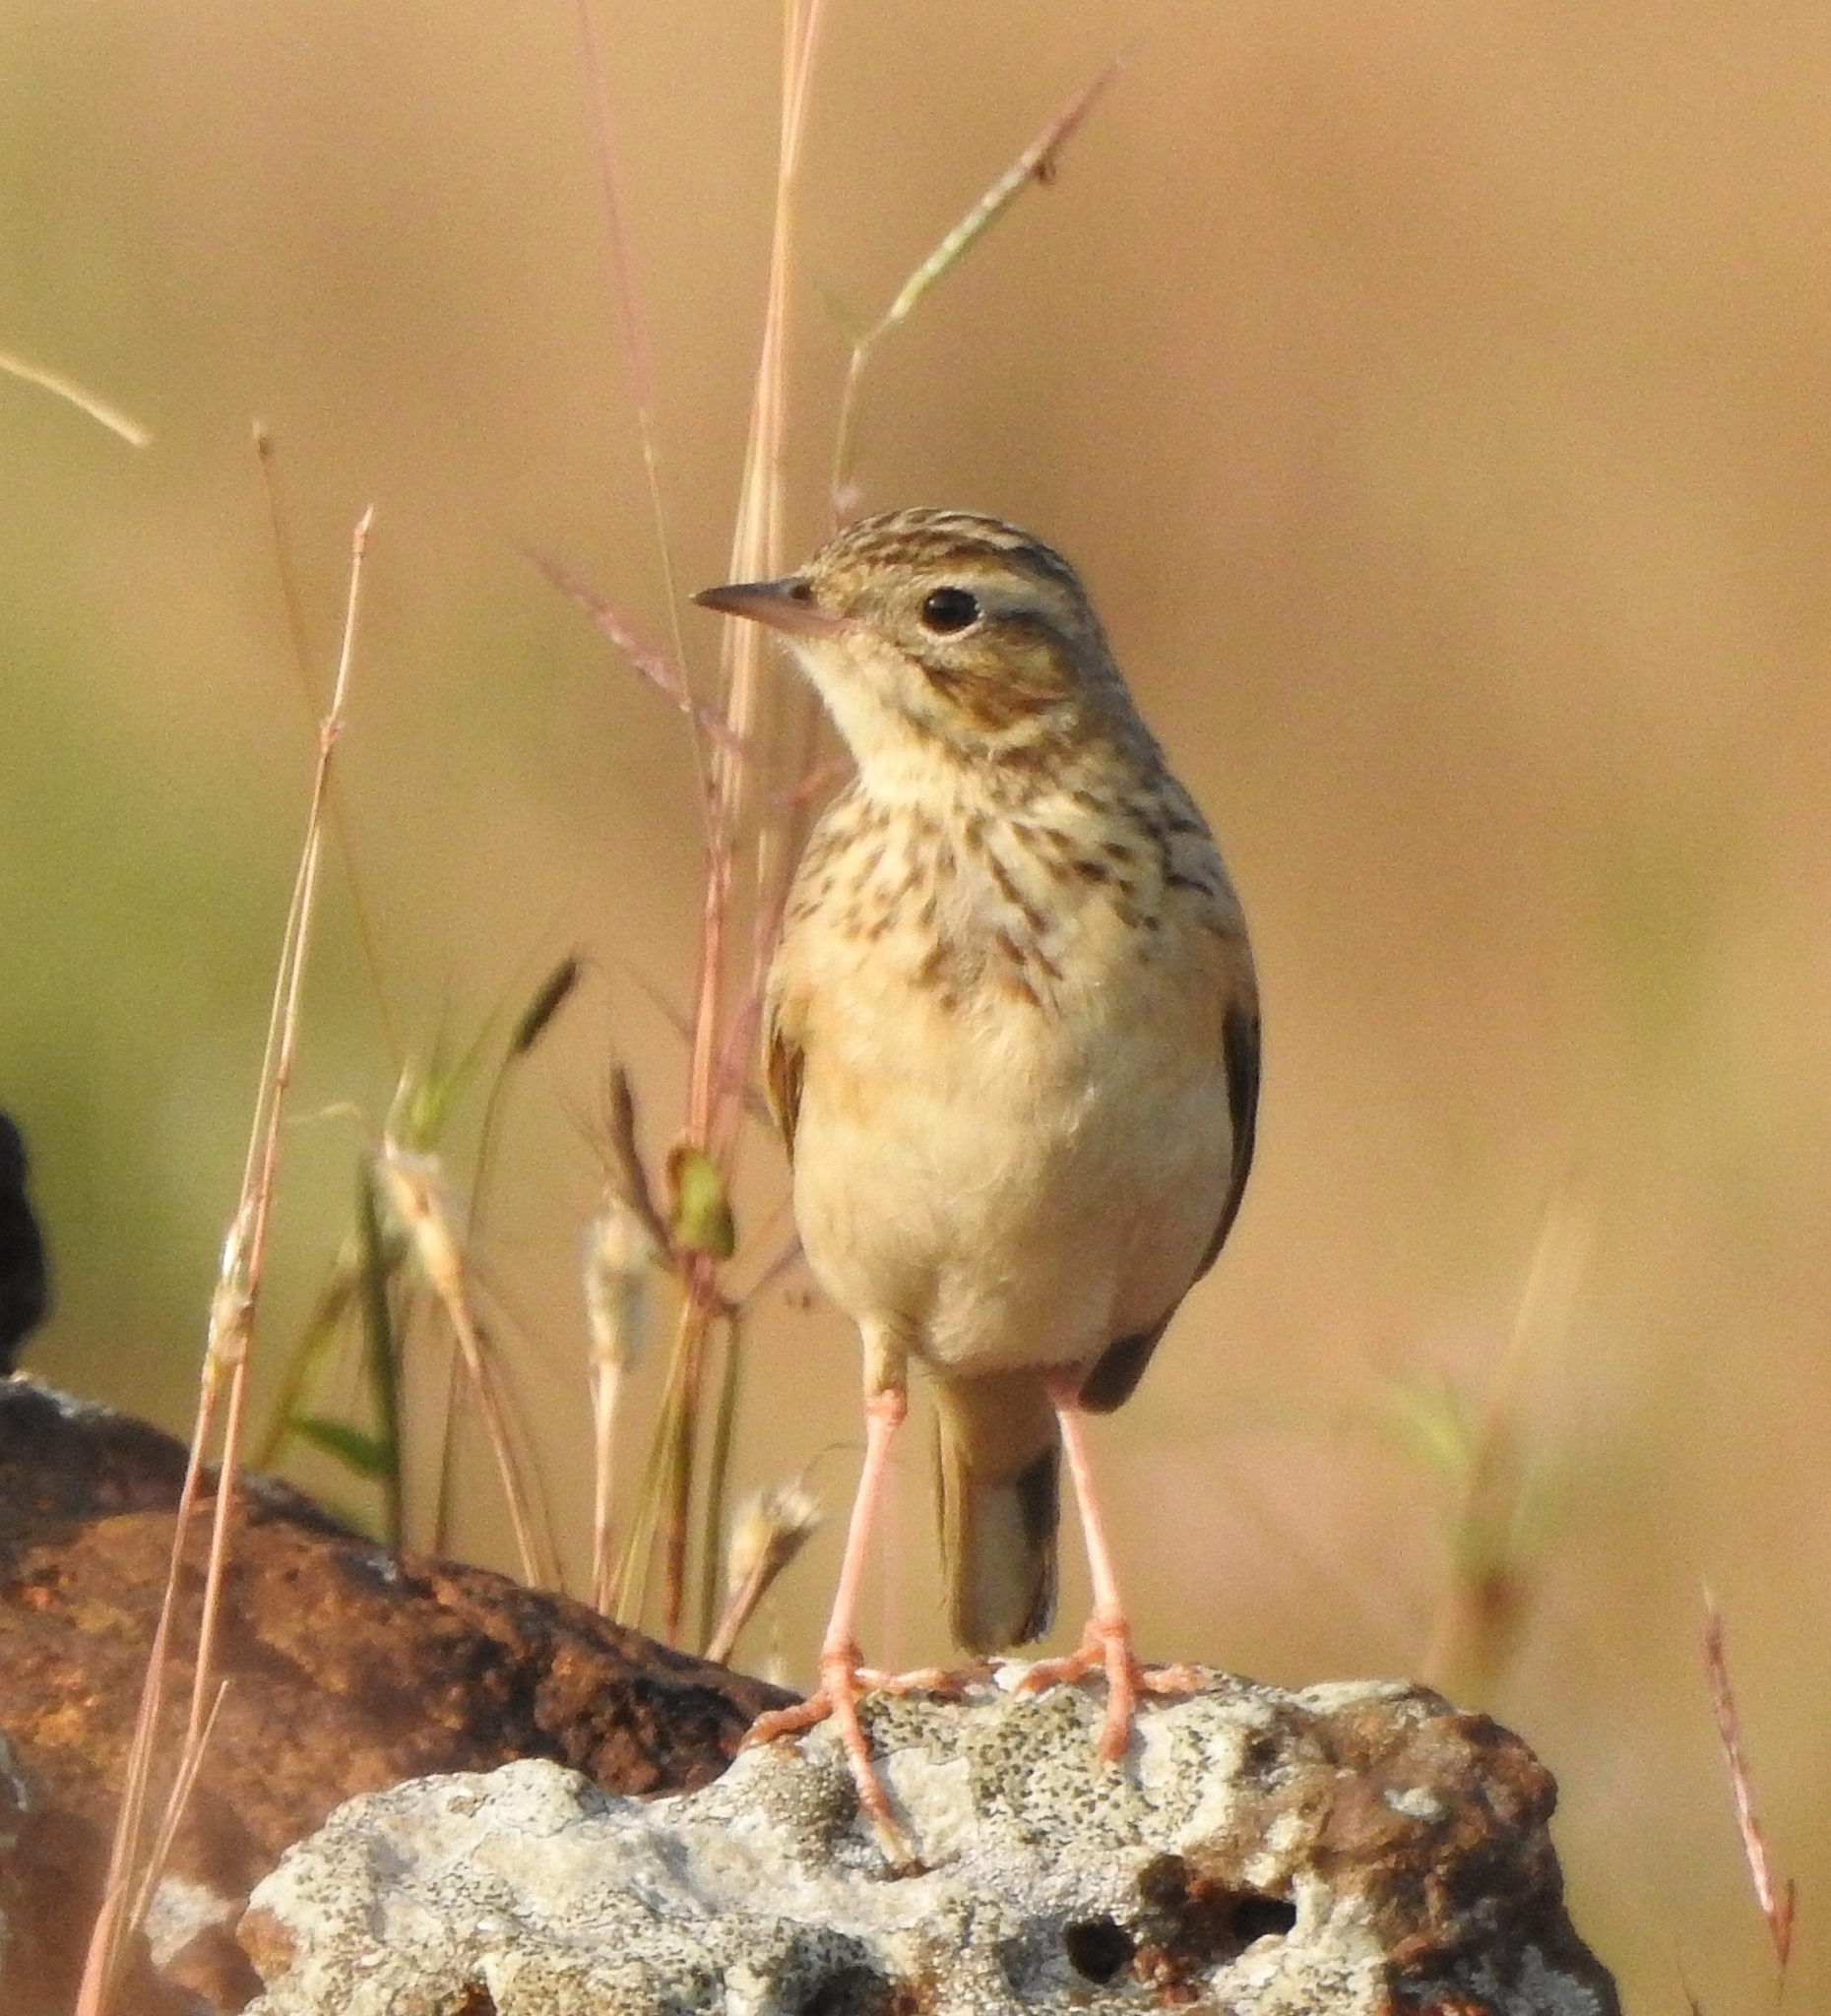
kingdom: Animalia
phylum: Chordata
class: Aves
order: Passeriformes
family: Motacillidae
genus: Anthus
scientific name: Anthus godlewskii
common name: Blyth's pipit
